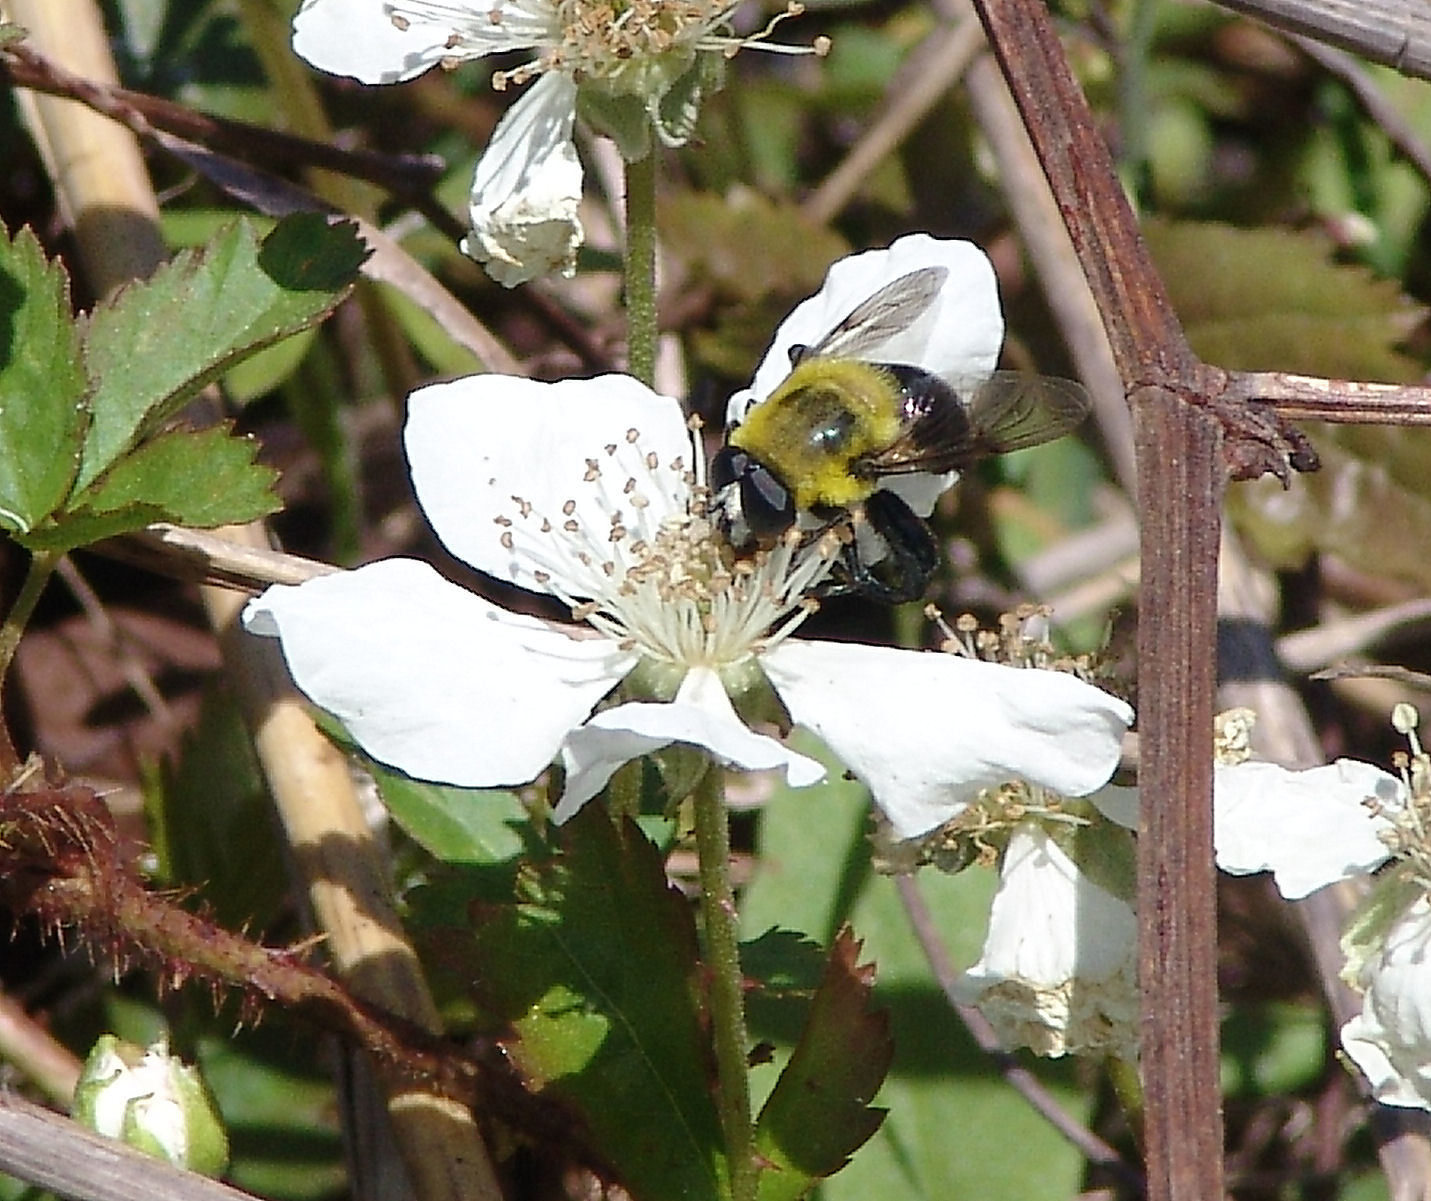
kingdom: Animalia
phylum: Arthropoda
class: Insecta
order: Diptera
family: Syrphidae
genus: Imatisma
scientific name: Imatisma bautias
